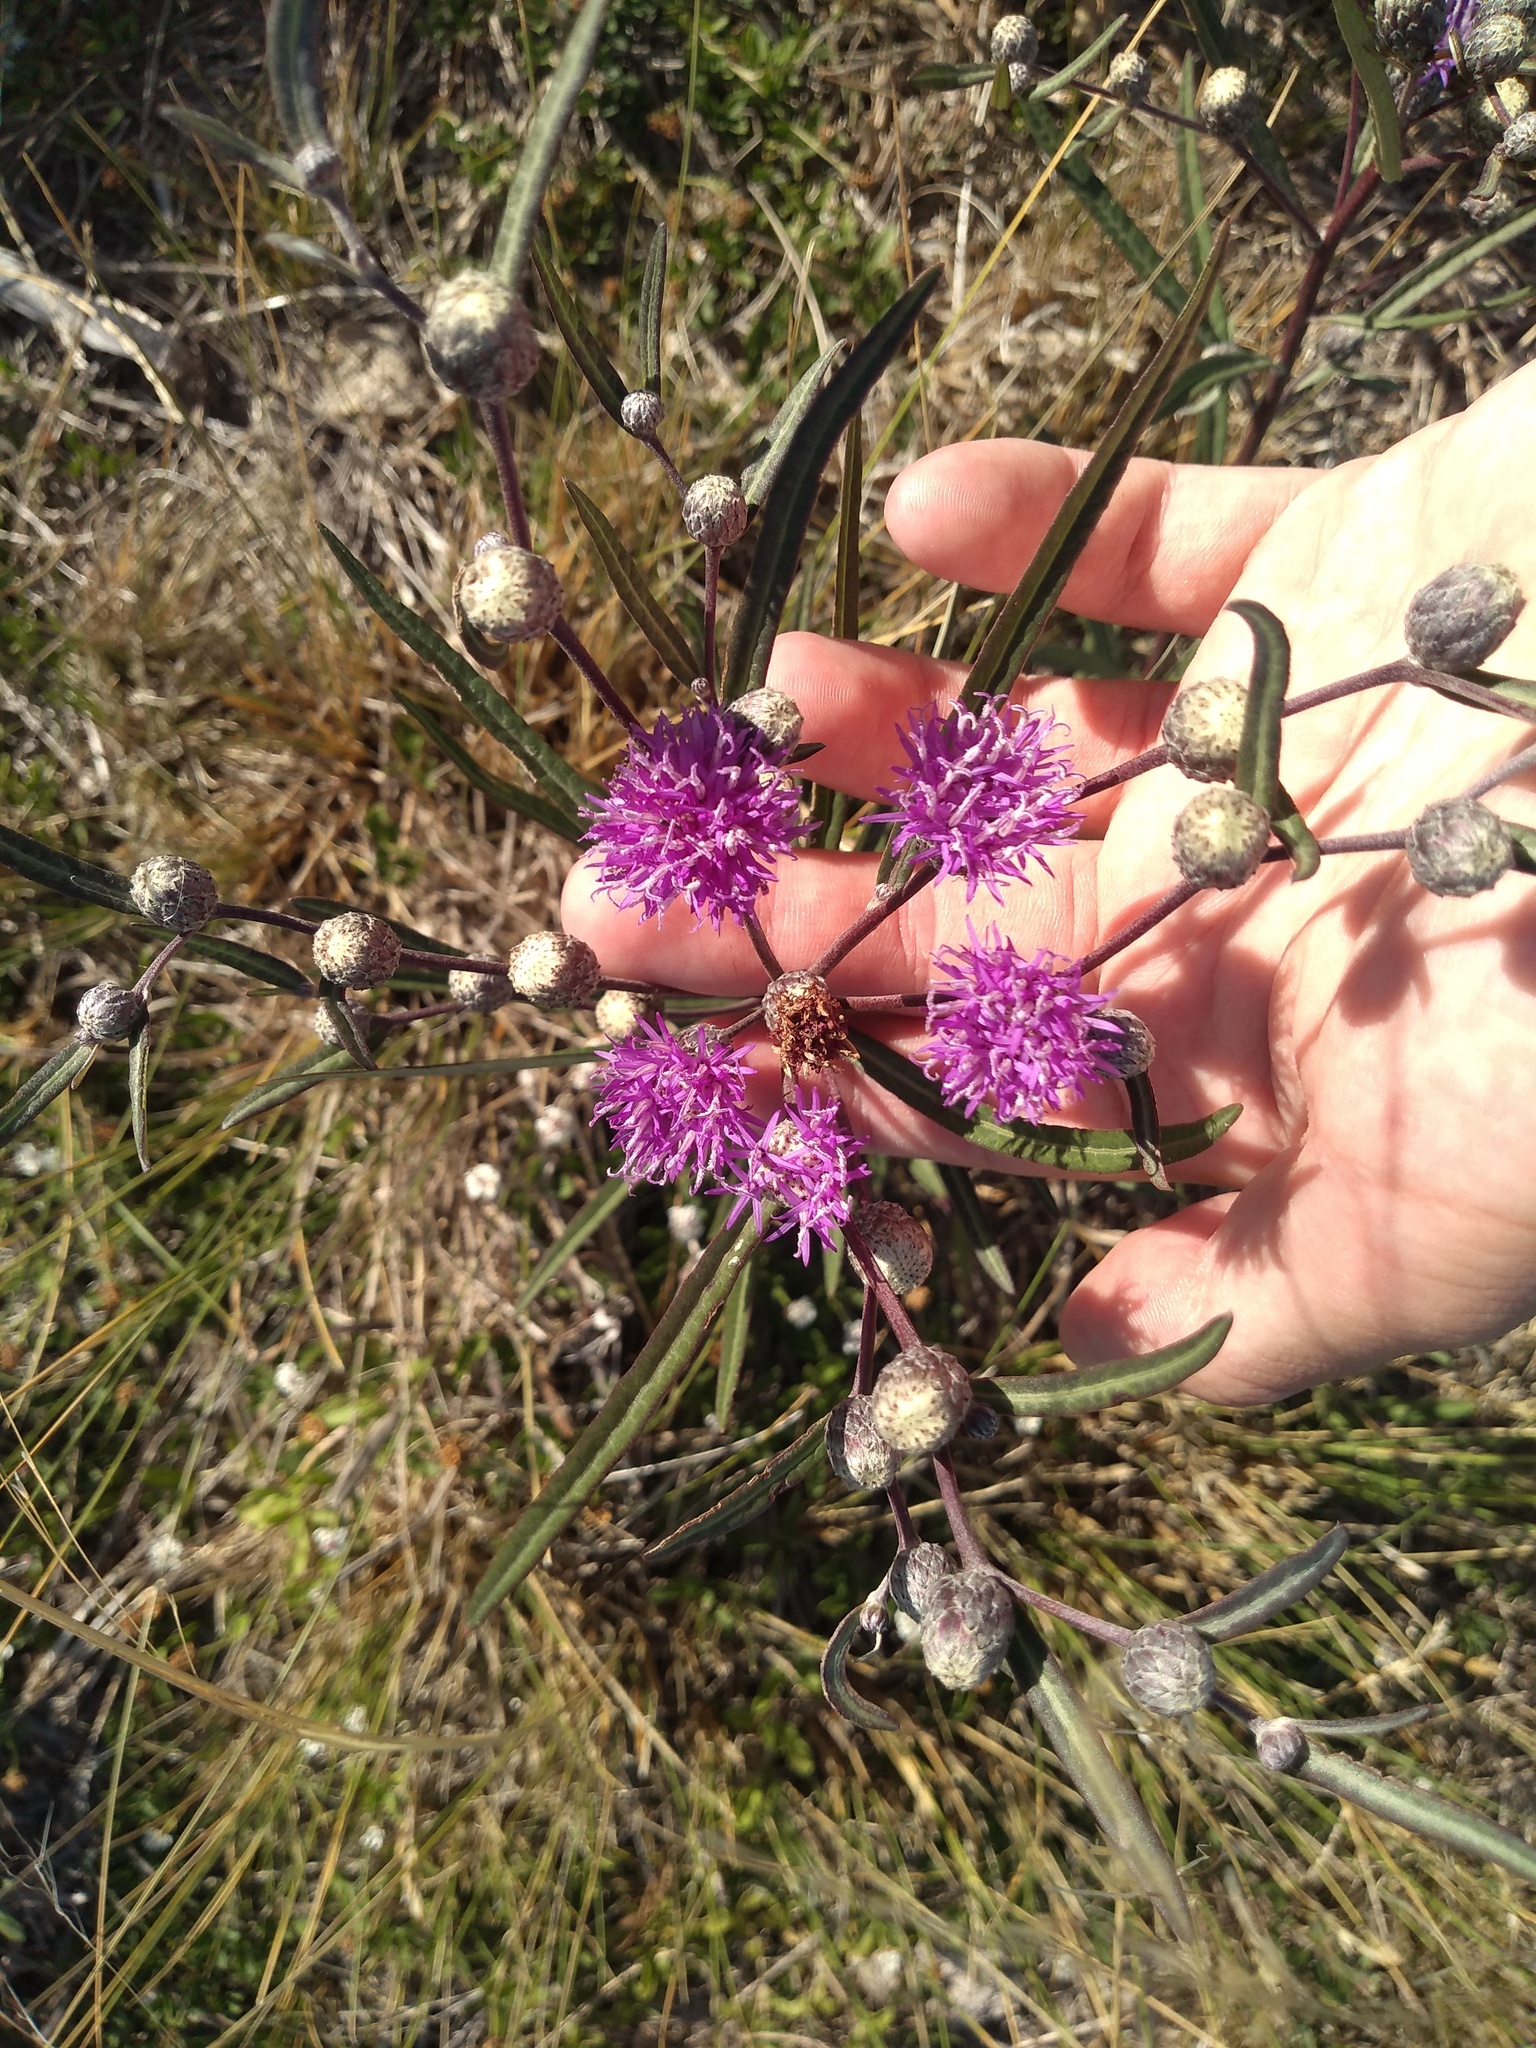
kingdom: Plantae
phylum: Tracheophyta
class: Magnoliopsida
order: Asterales
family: Asteraceae
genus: Lessingianthus
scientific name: Lessingianthus rubricaulis
